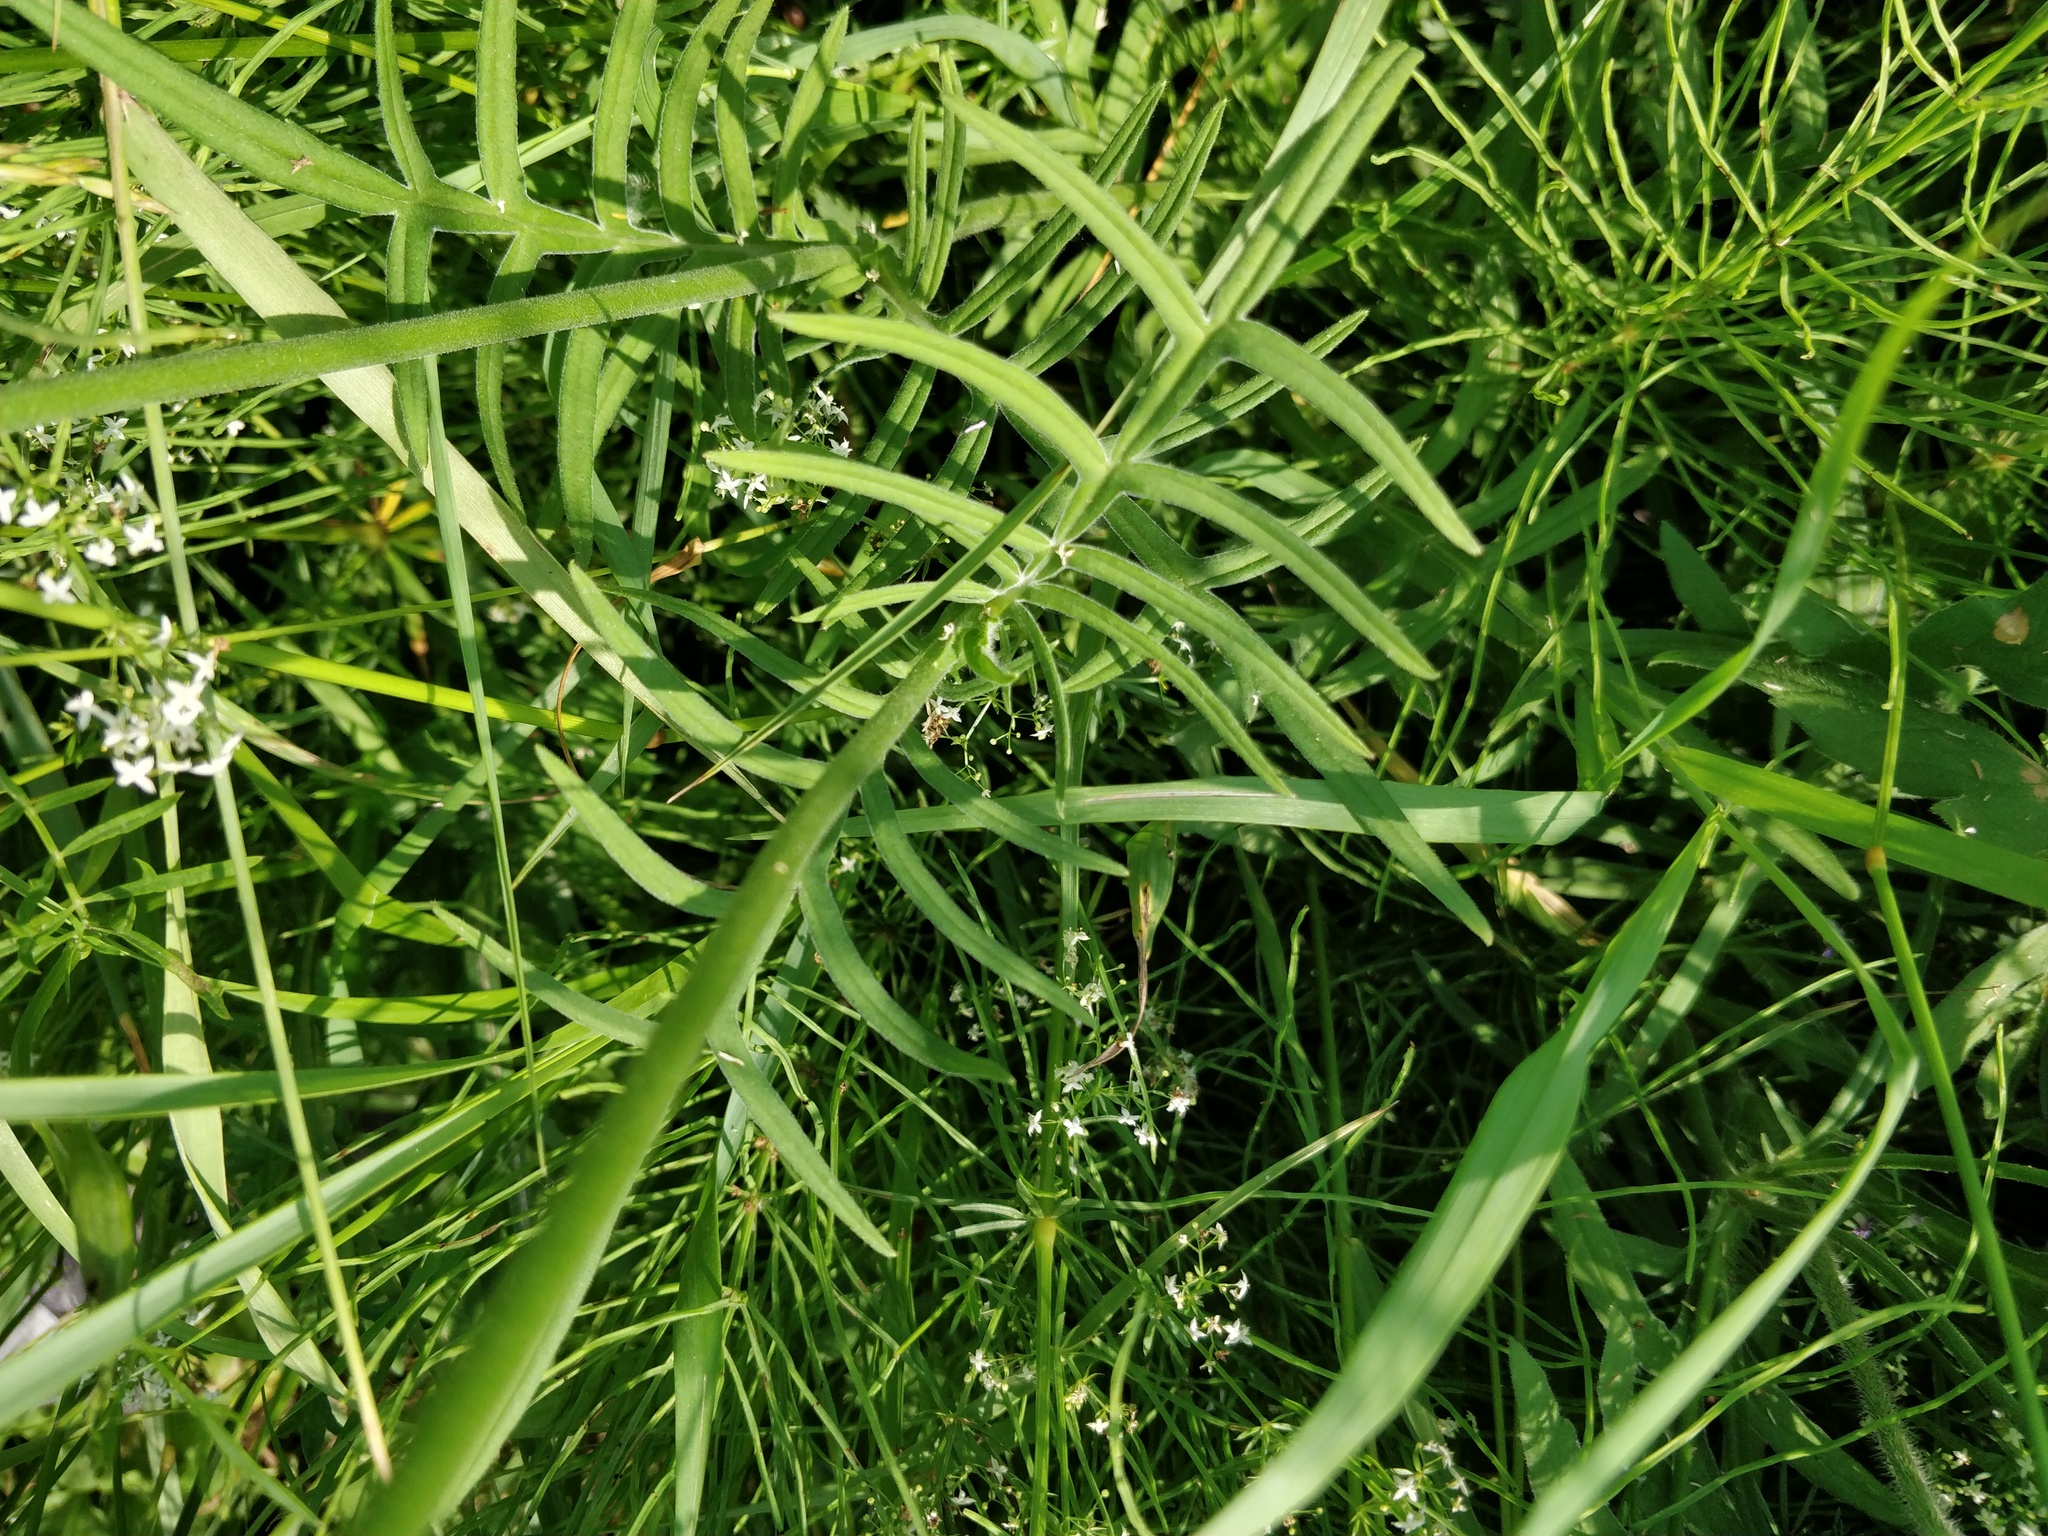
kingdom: Plantae
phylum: Tracheophyta
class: Magnoliopsida
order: Dipsacales
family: Caprifoliaceae
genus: Knautia
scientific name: Knautia arvensis
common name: Field scabiosa
